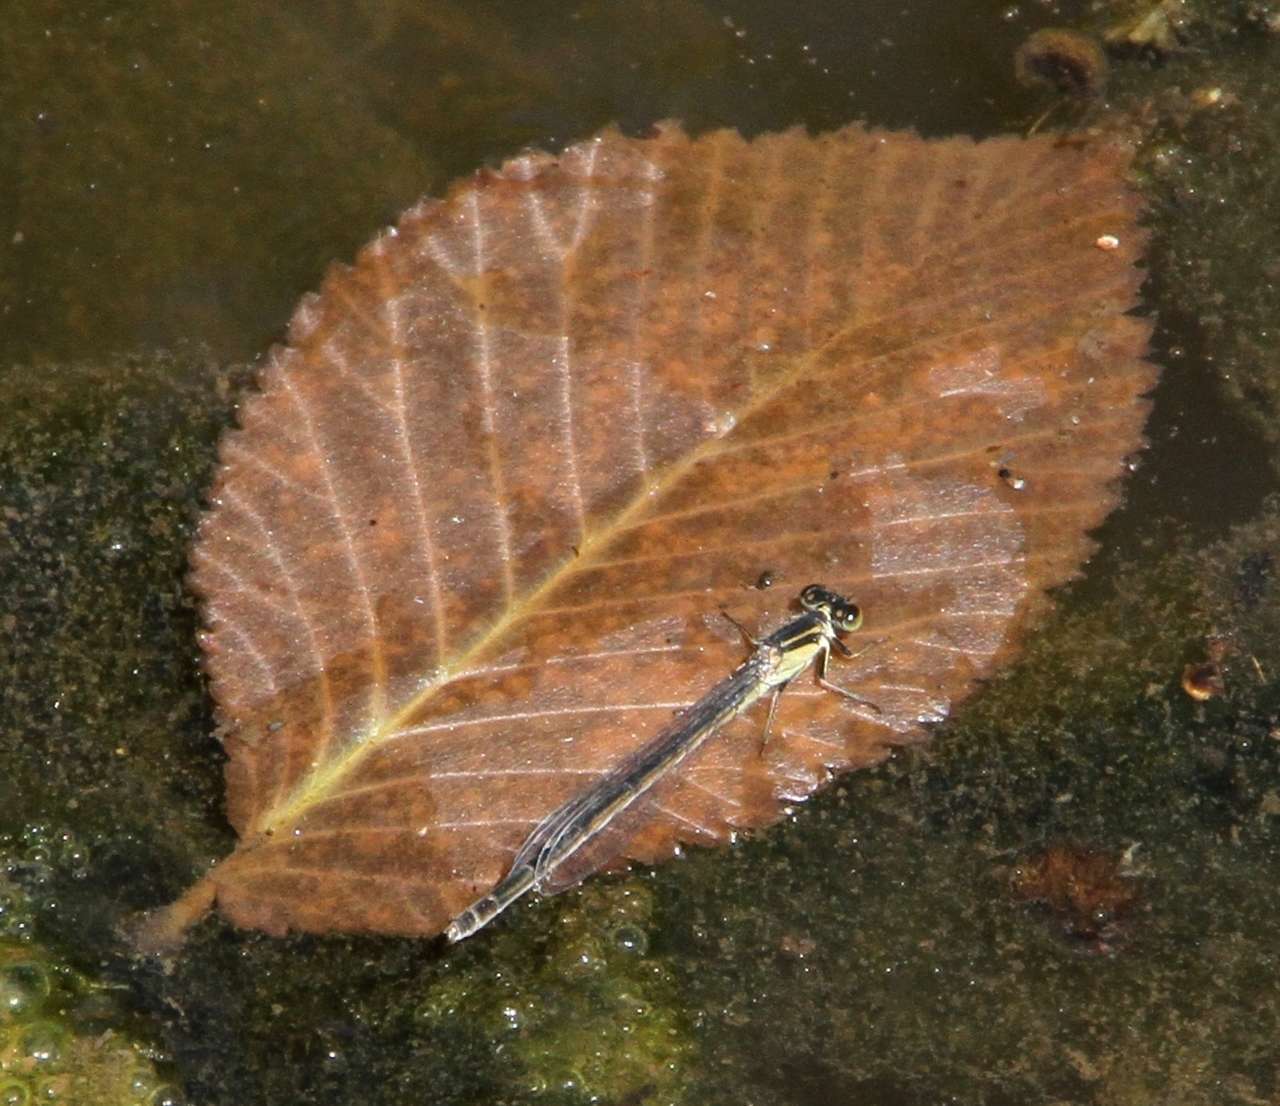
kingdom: Animalia
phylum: Arthropoda
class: Insecta
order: Odonata
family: Coenagrionidae
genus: Ischnura
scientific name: Ischnura heterosticta
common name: Common bluetail
